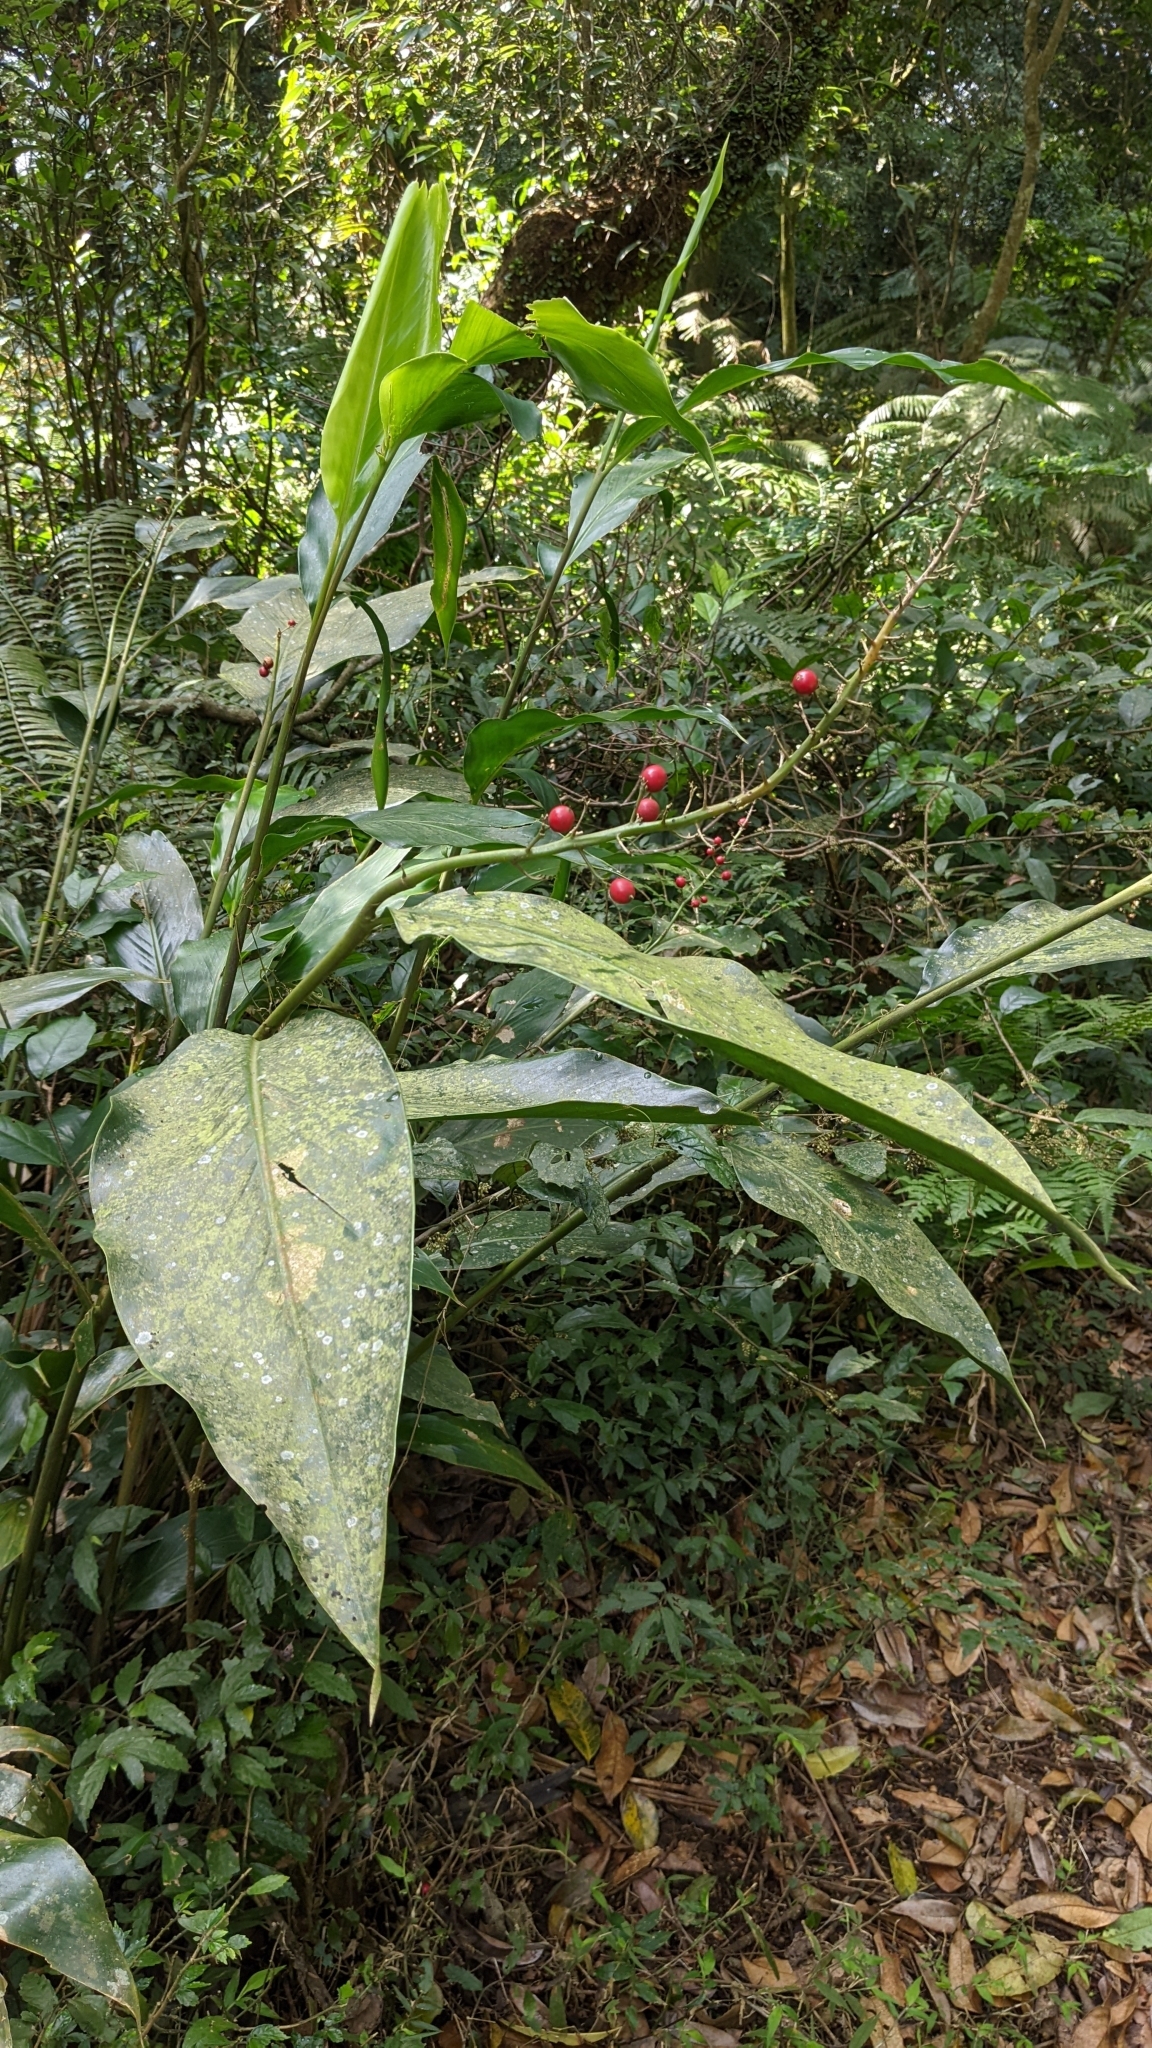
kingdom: Plantae
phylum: Tracheophyta
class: Liliopsida
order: Zingiberales
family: Zingiberaceae
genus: Alpinia
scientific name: Alpinia intermedia
